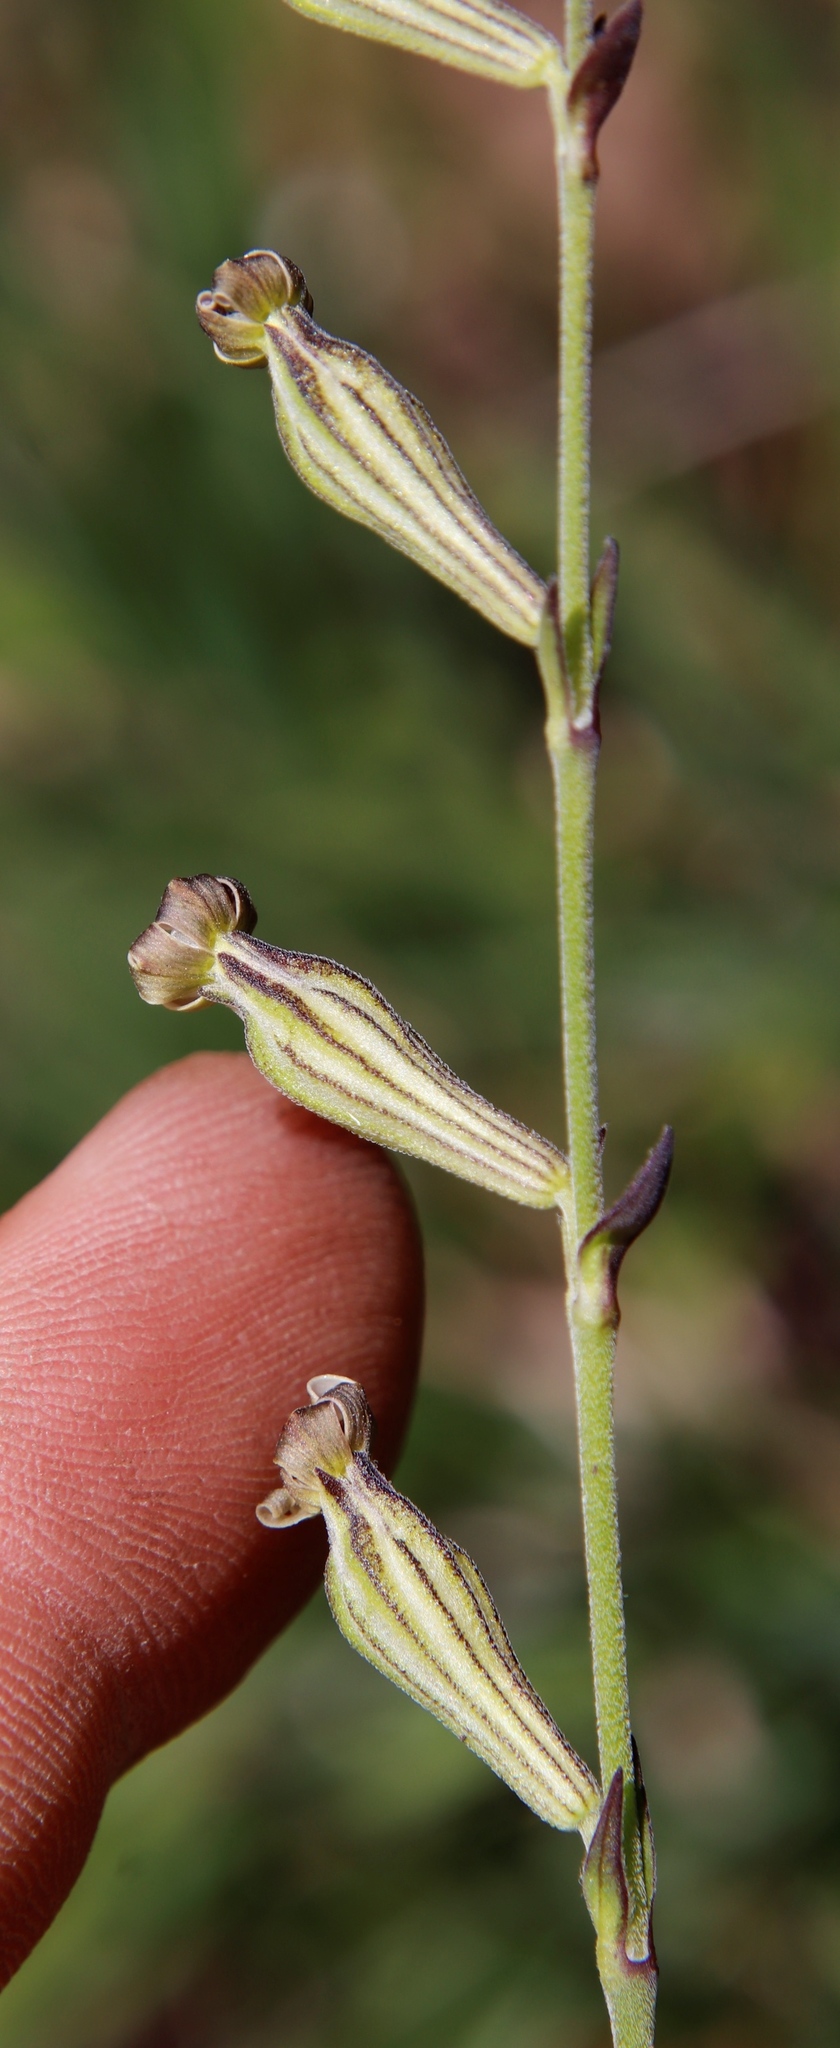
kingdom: Plantae
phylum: Tracheophyta
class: Magnoliopsida
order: Caryophyllales
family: Caryophyllaceae
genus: Silene
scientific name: Silene burchellii
